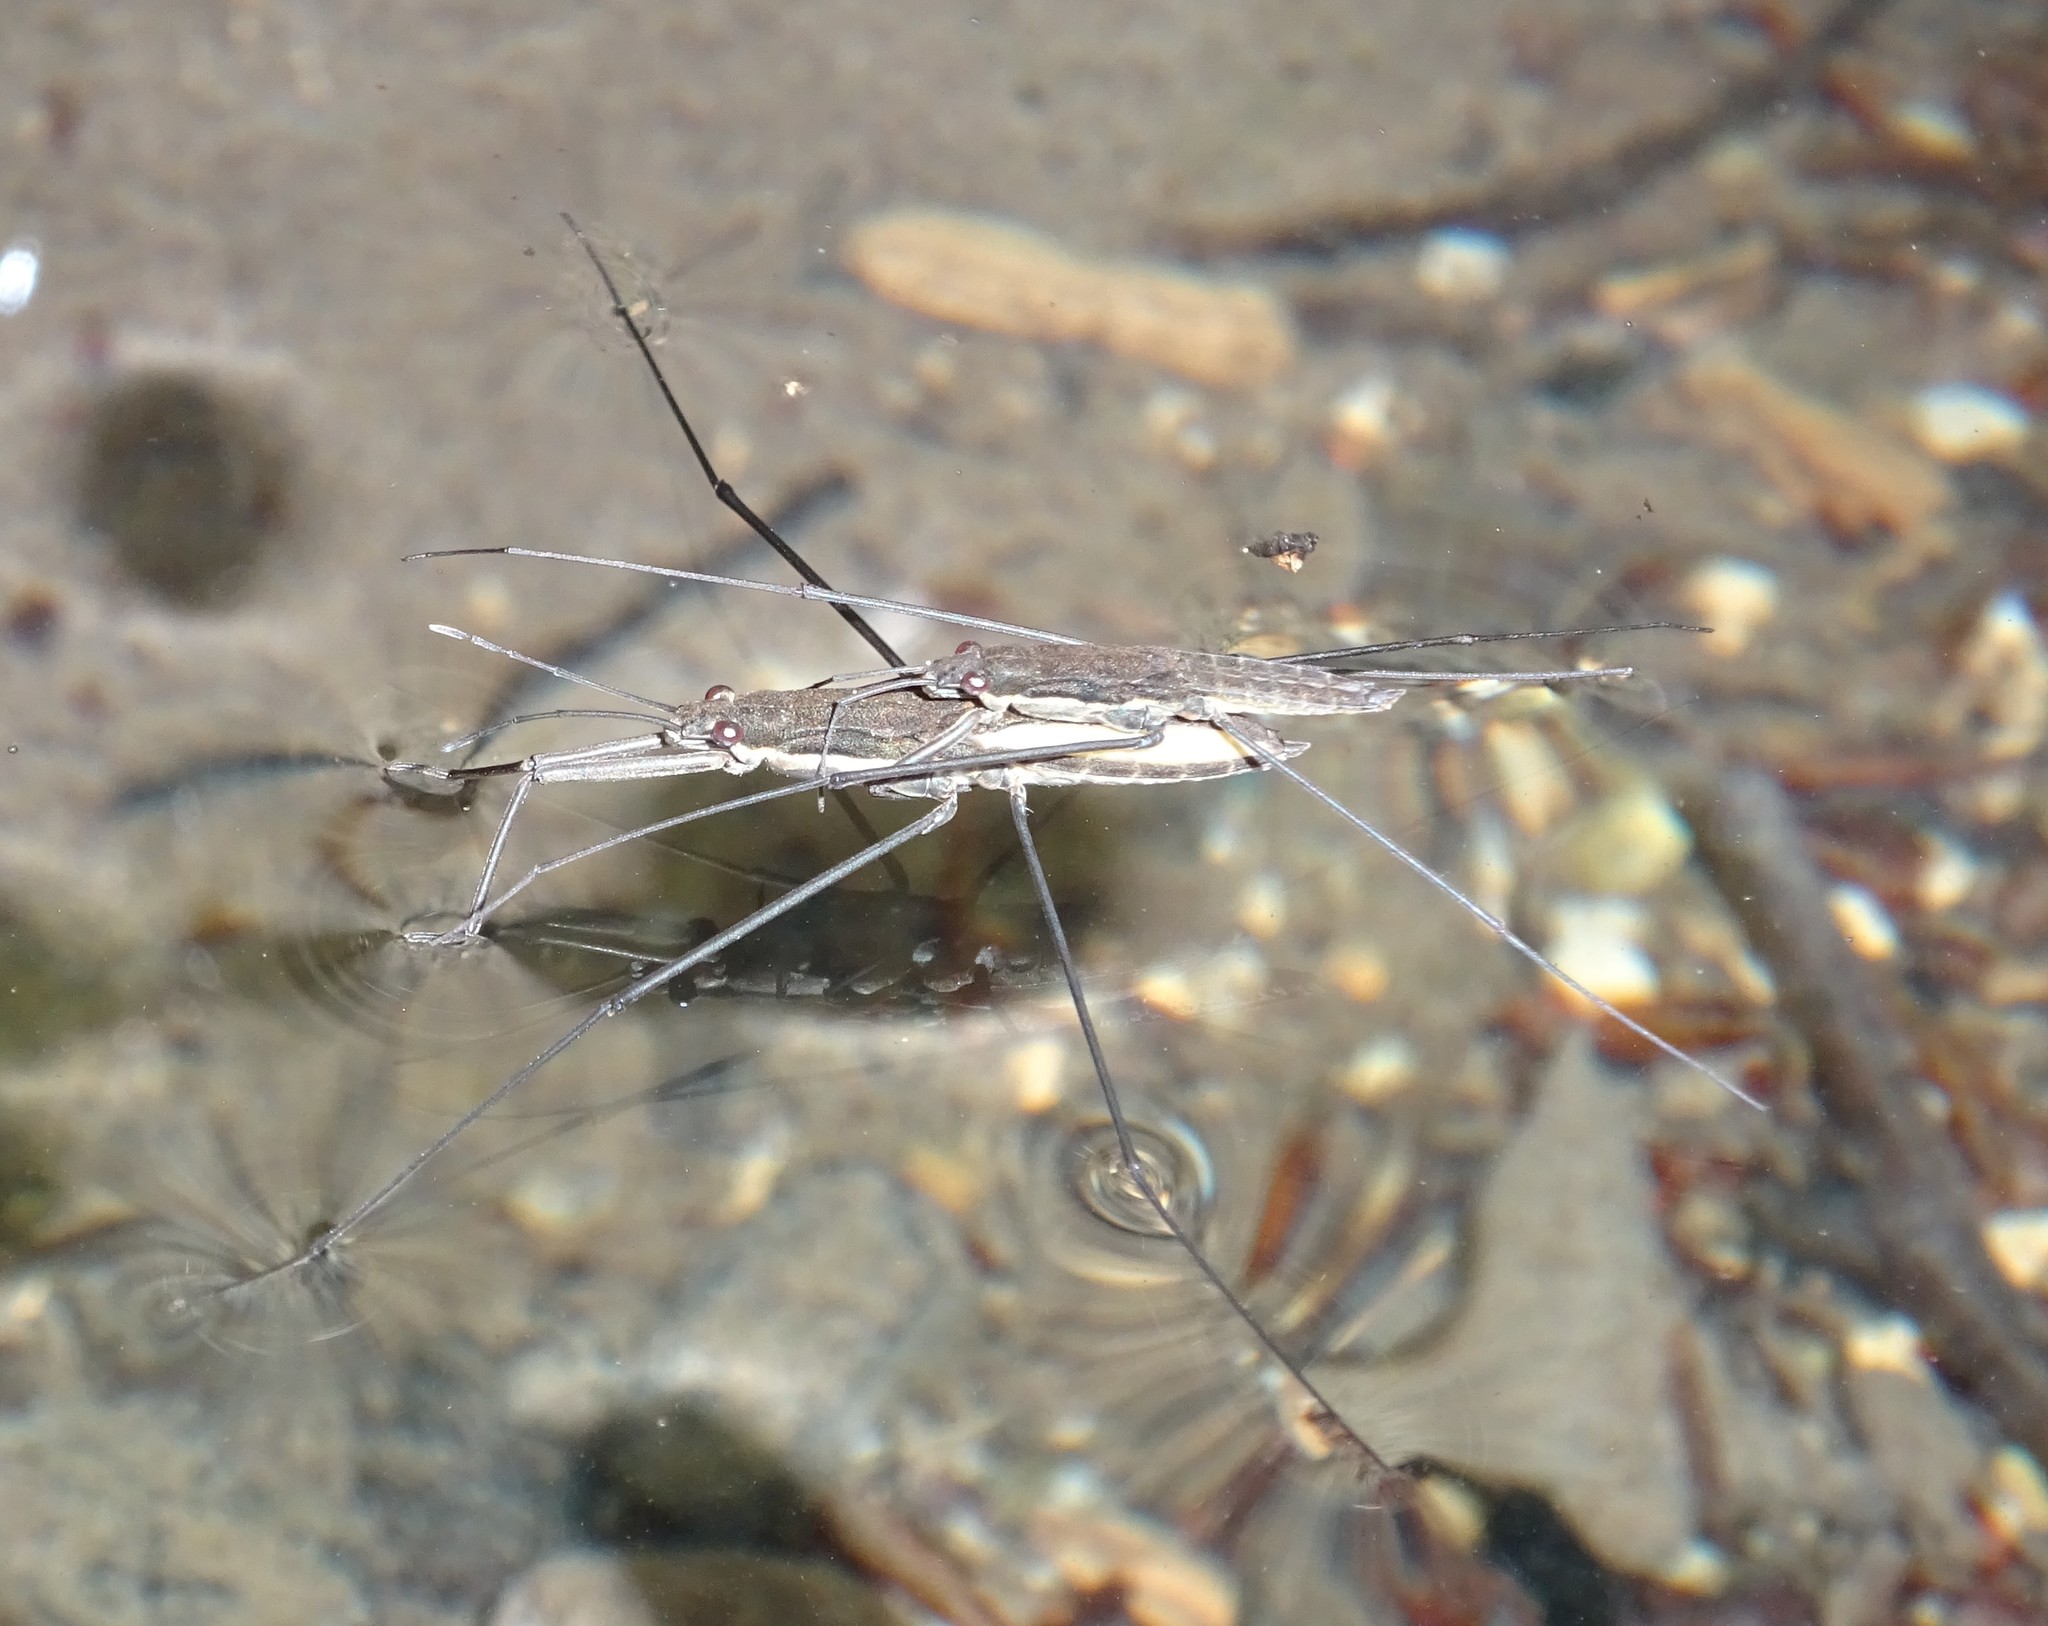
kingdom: Animalia
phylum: Arthropoda
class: Insecta
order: Hemiptera
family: Gerridae
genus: Aquarius
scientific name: Aquarius najas
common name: River skater
